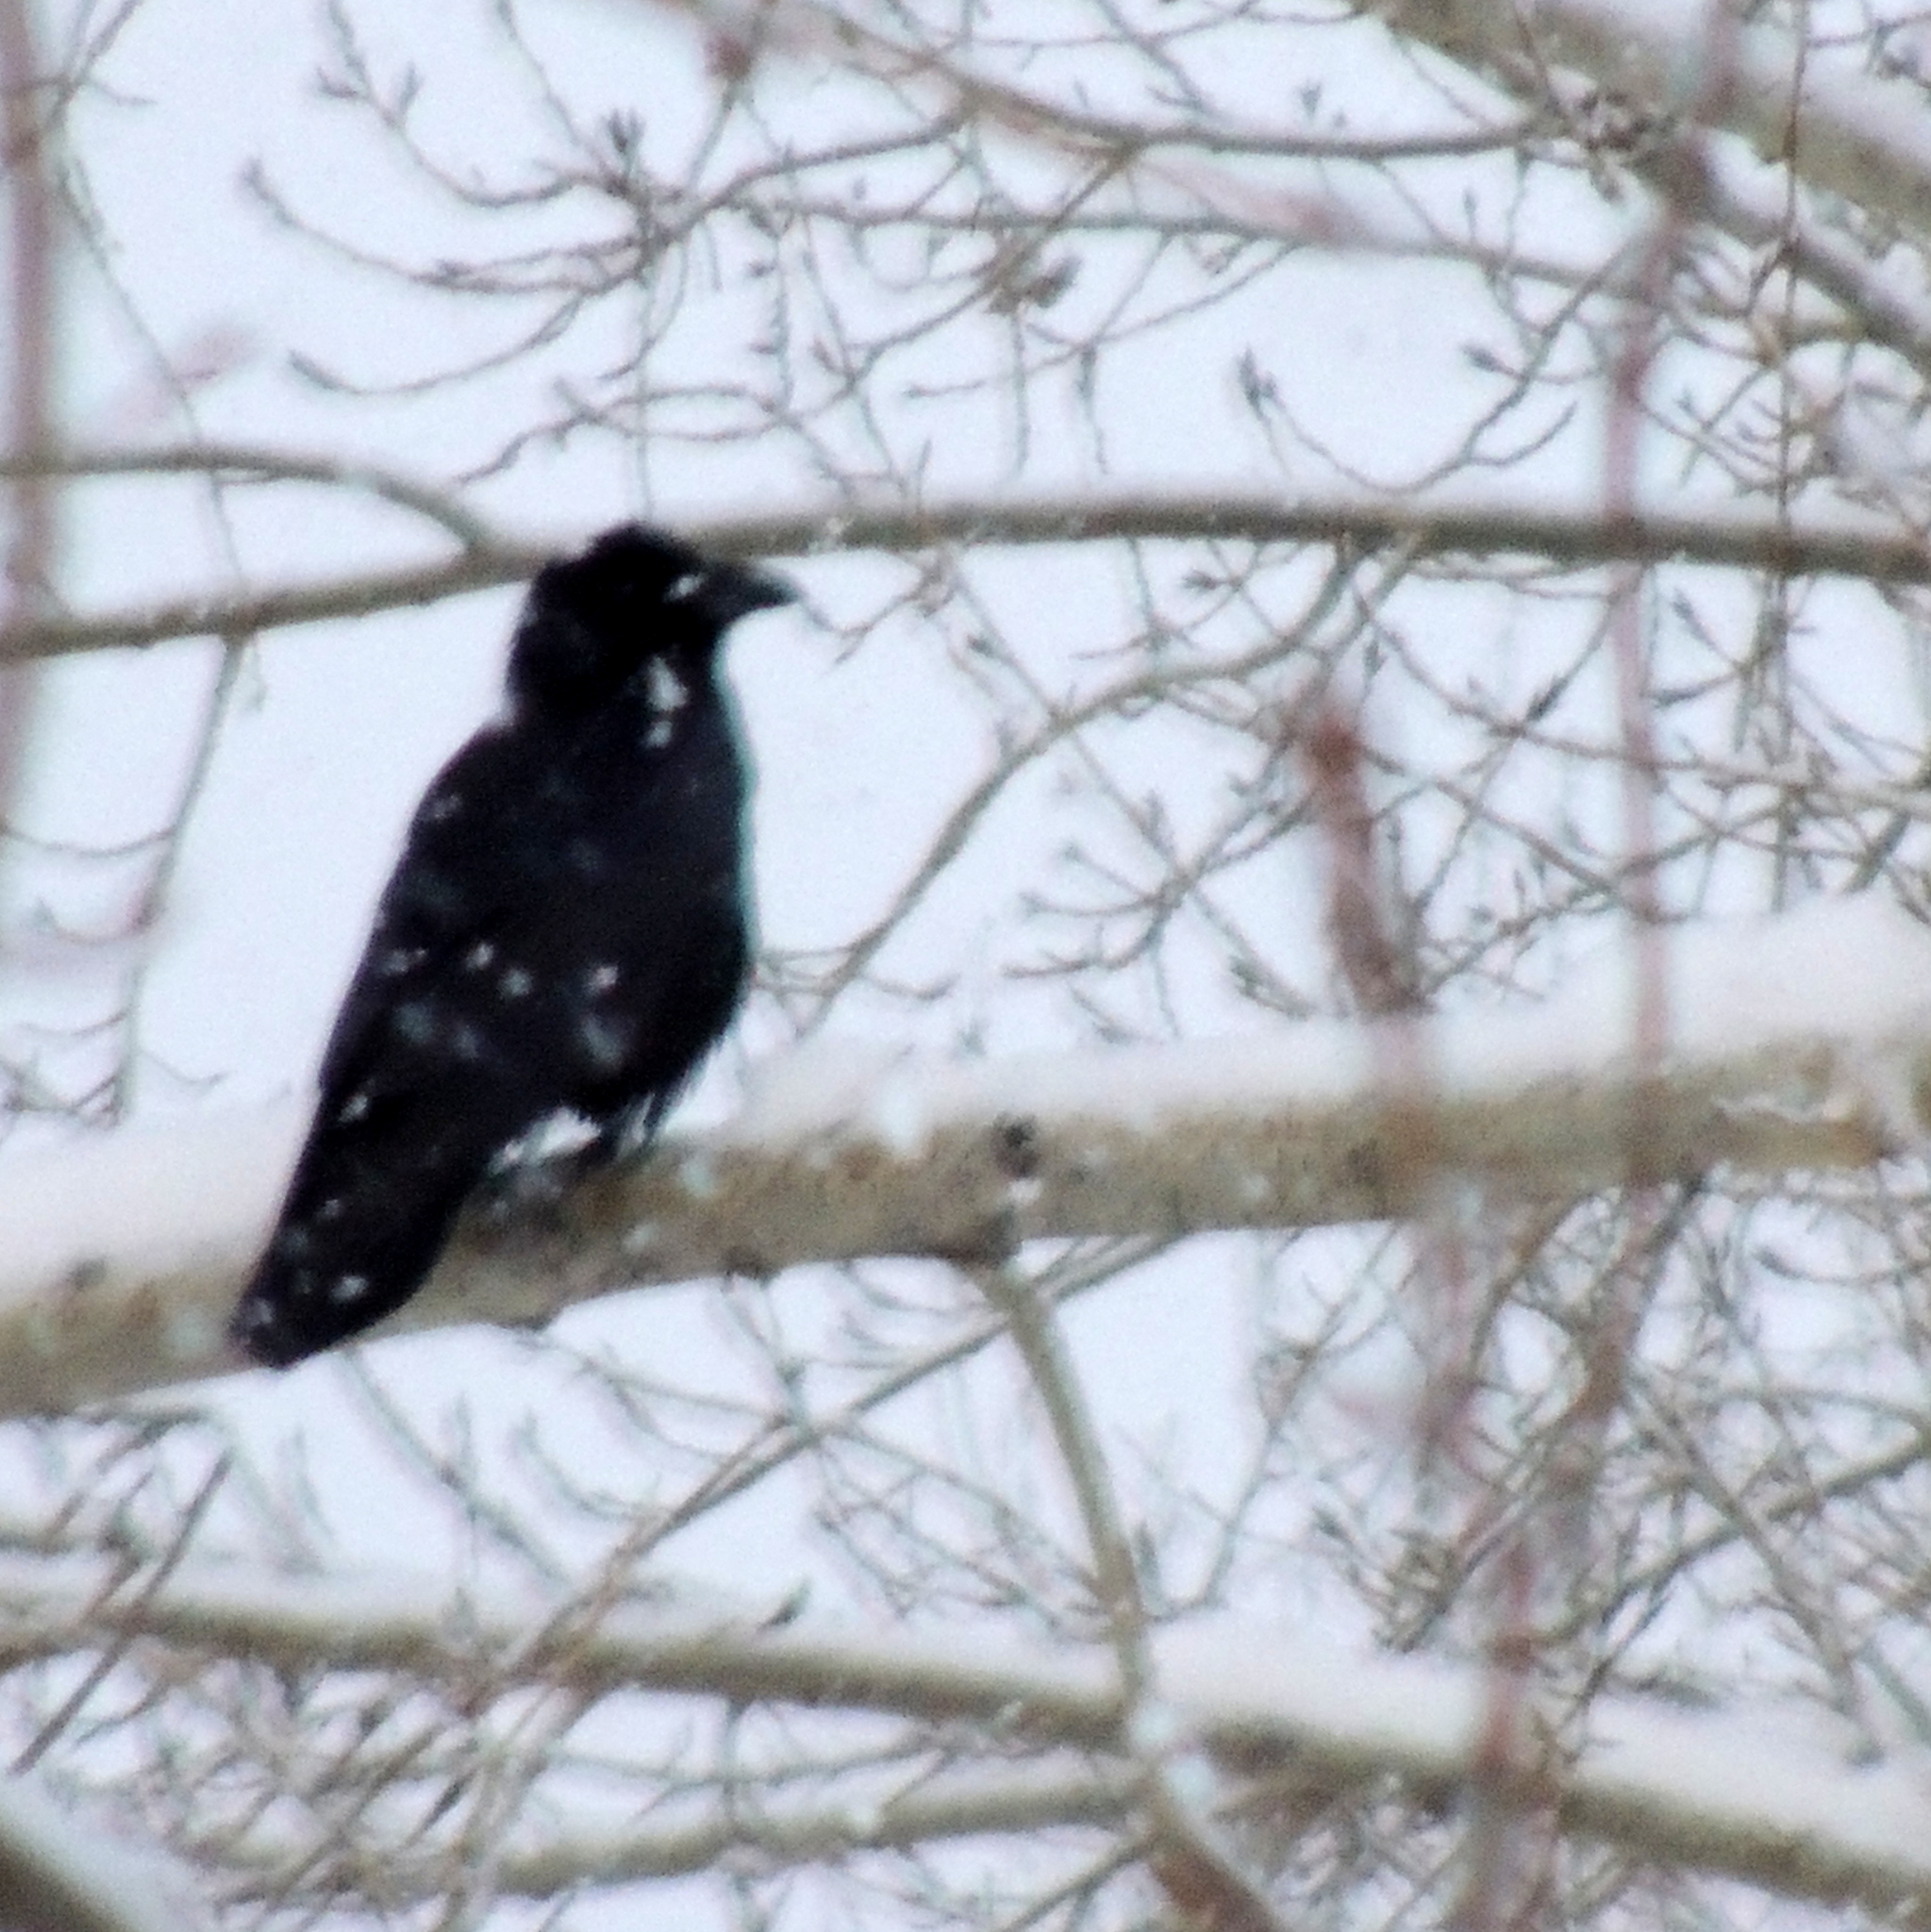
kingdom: Animalia
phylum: Chordata
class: Aves
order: Passeriformes
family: Corvidae
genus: Corvus
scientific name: Corvus corax
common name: Common raven
